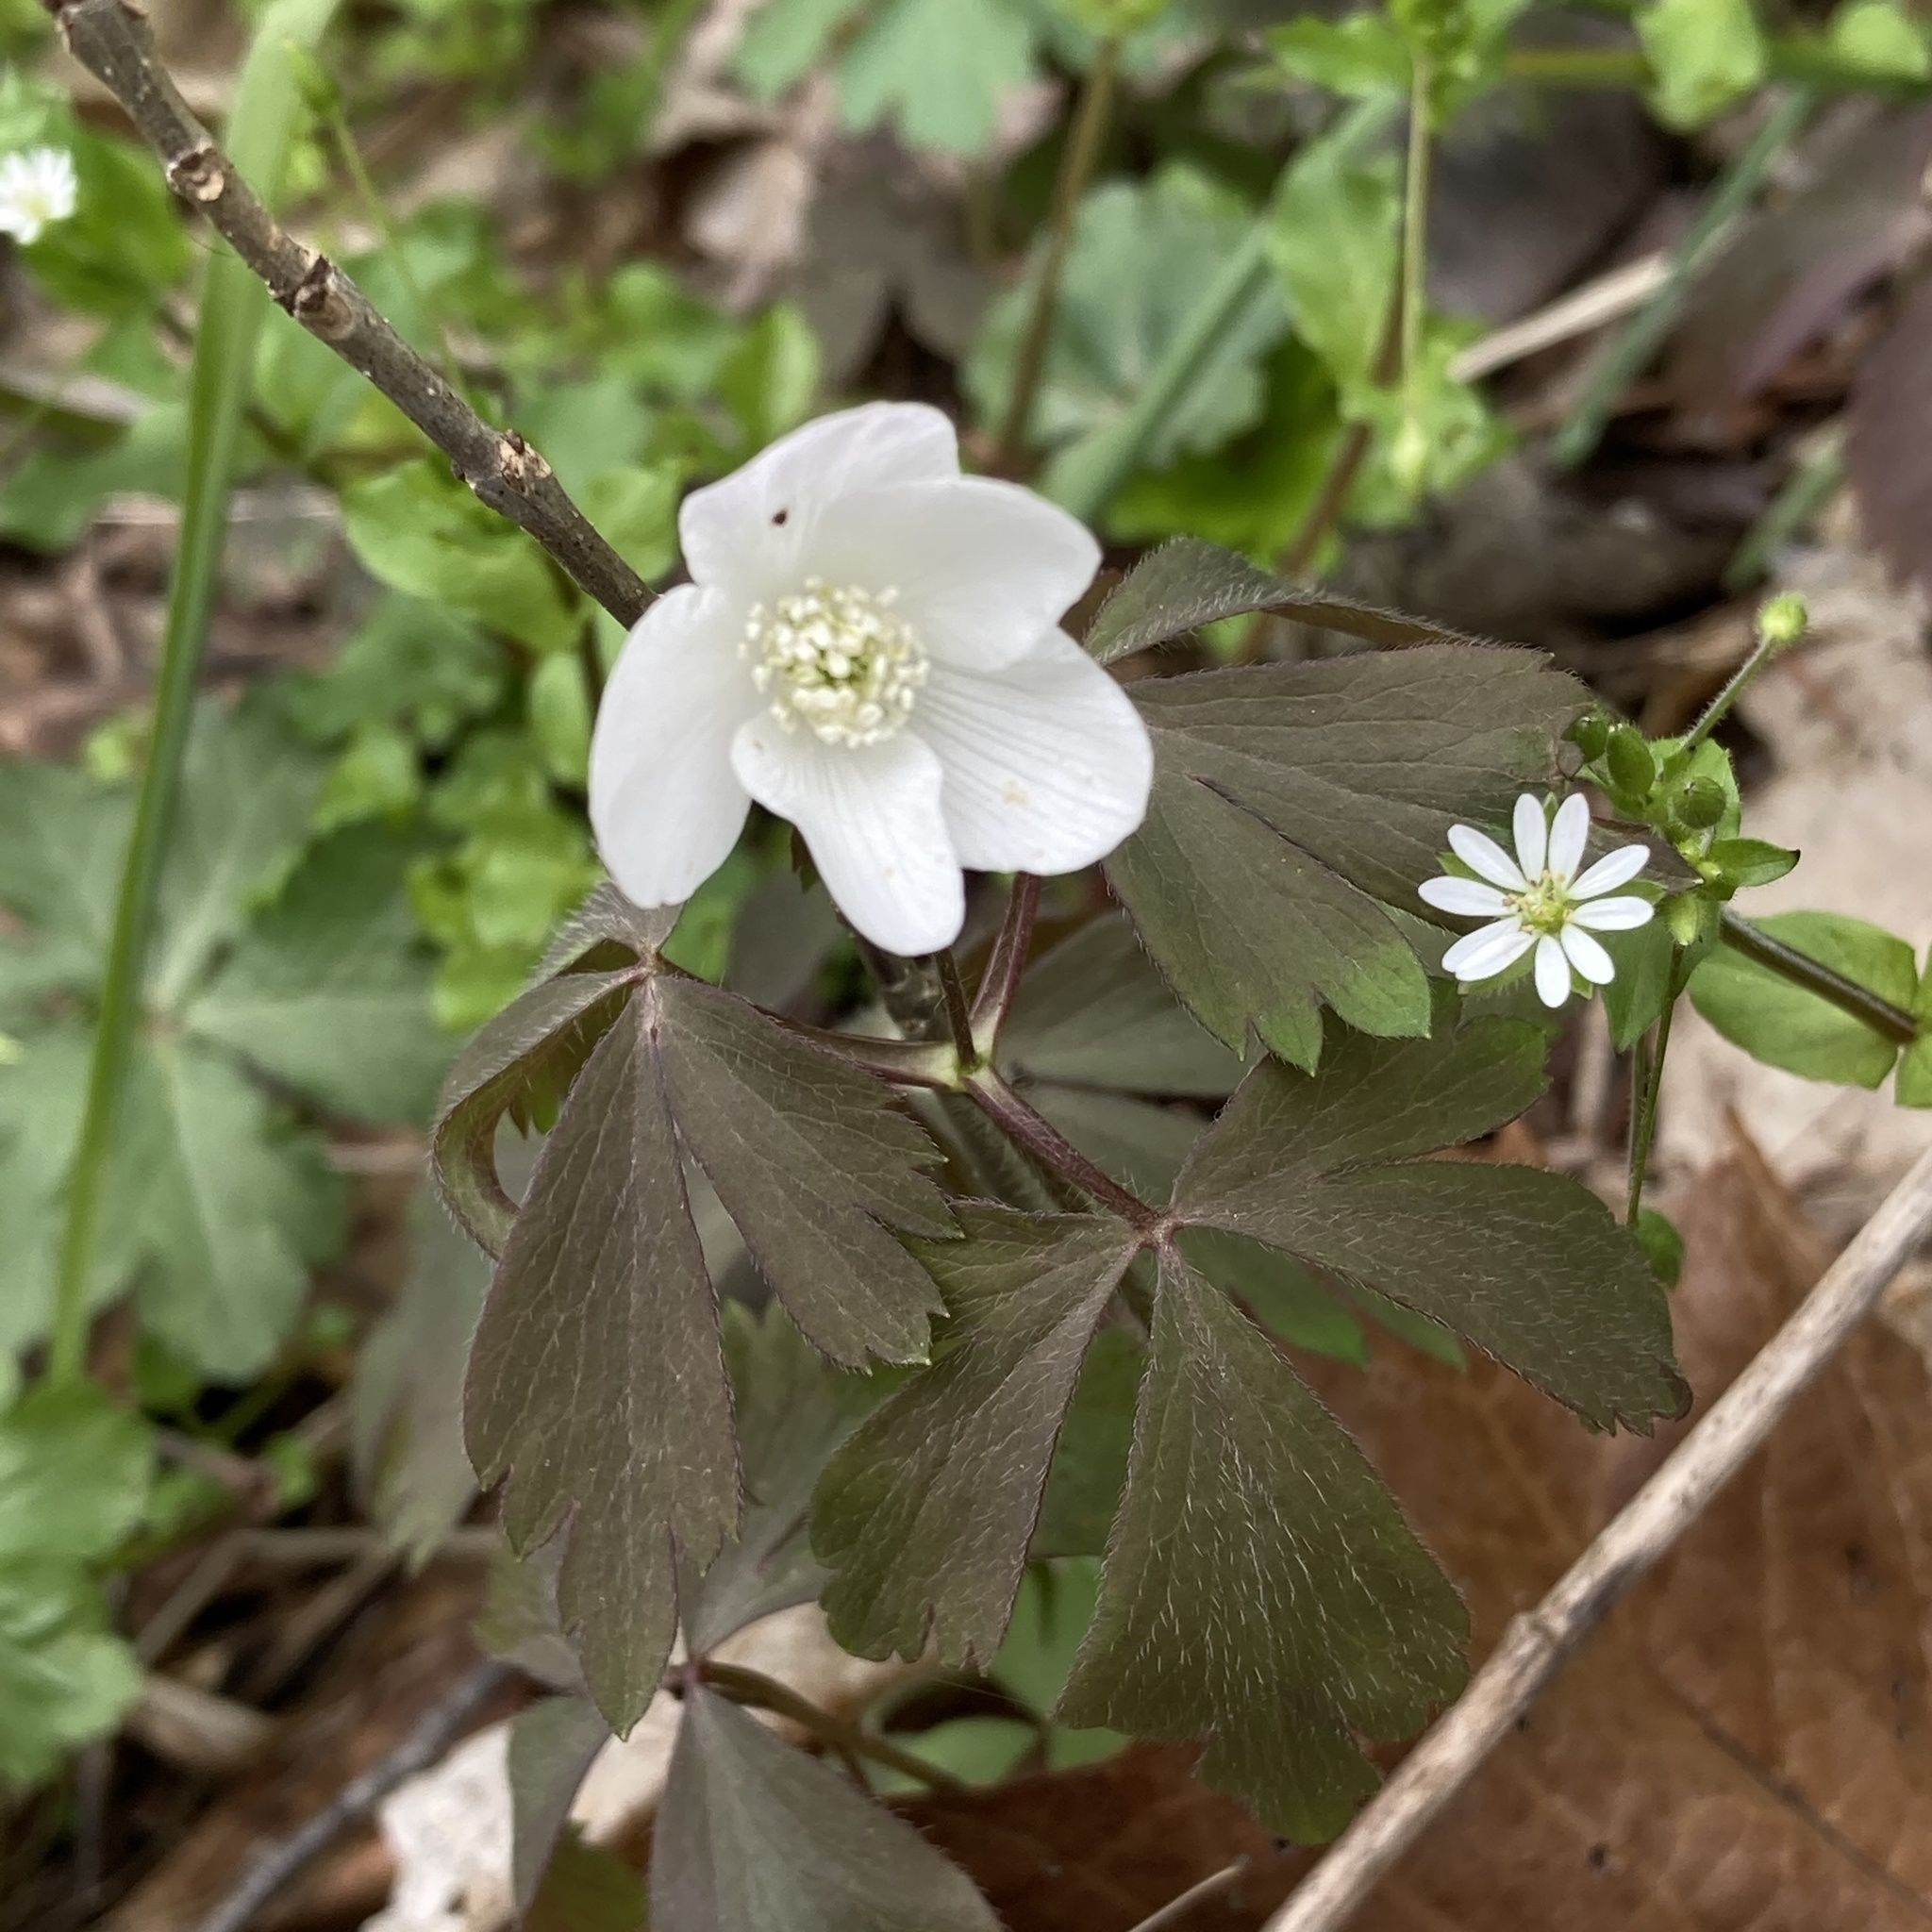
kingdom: Plantae
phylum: Tracheophyta
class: Magnoliopsida
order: Ranunculales
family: Ranunculaceae
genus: Anemone
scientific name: Anemone quinquefolia
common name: Wood anemone
